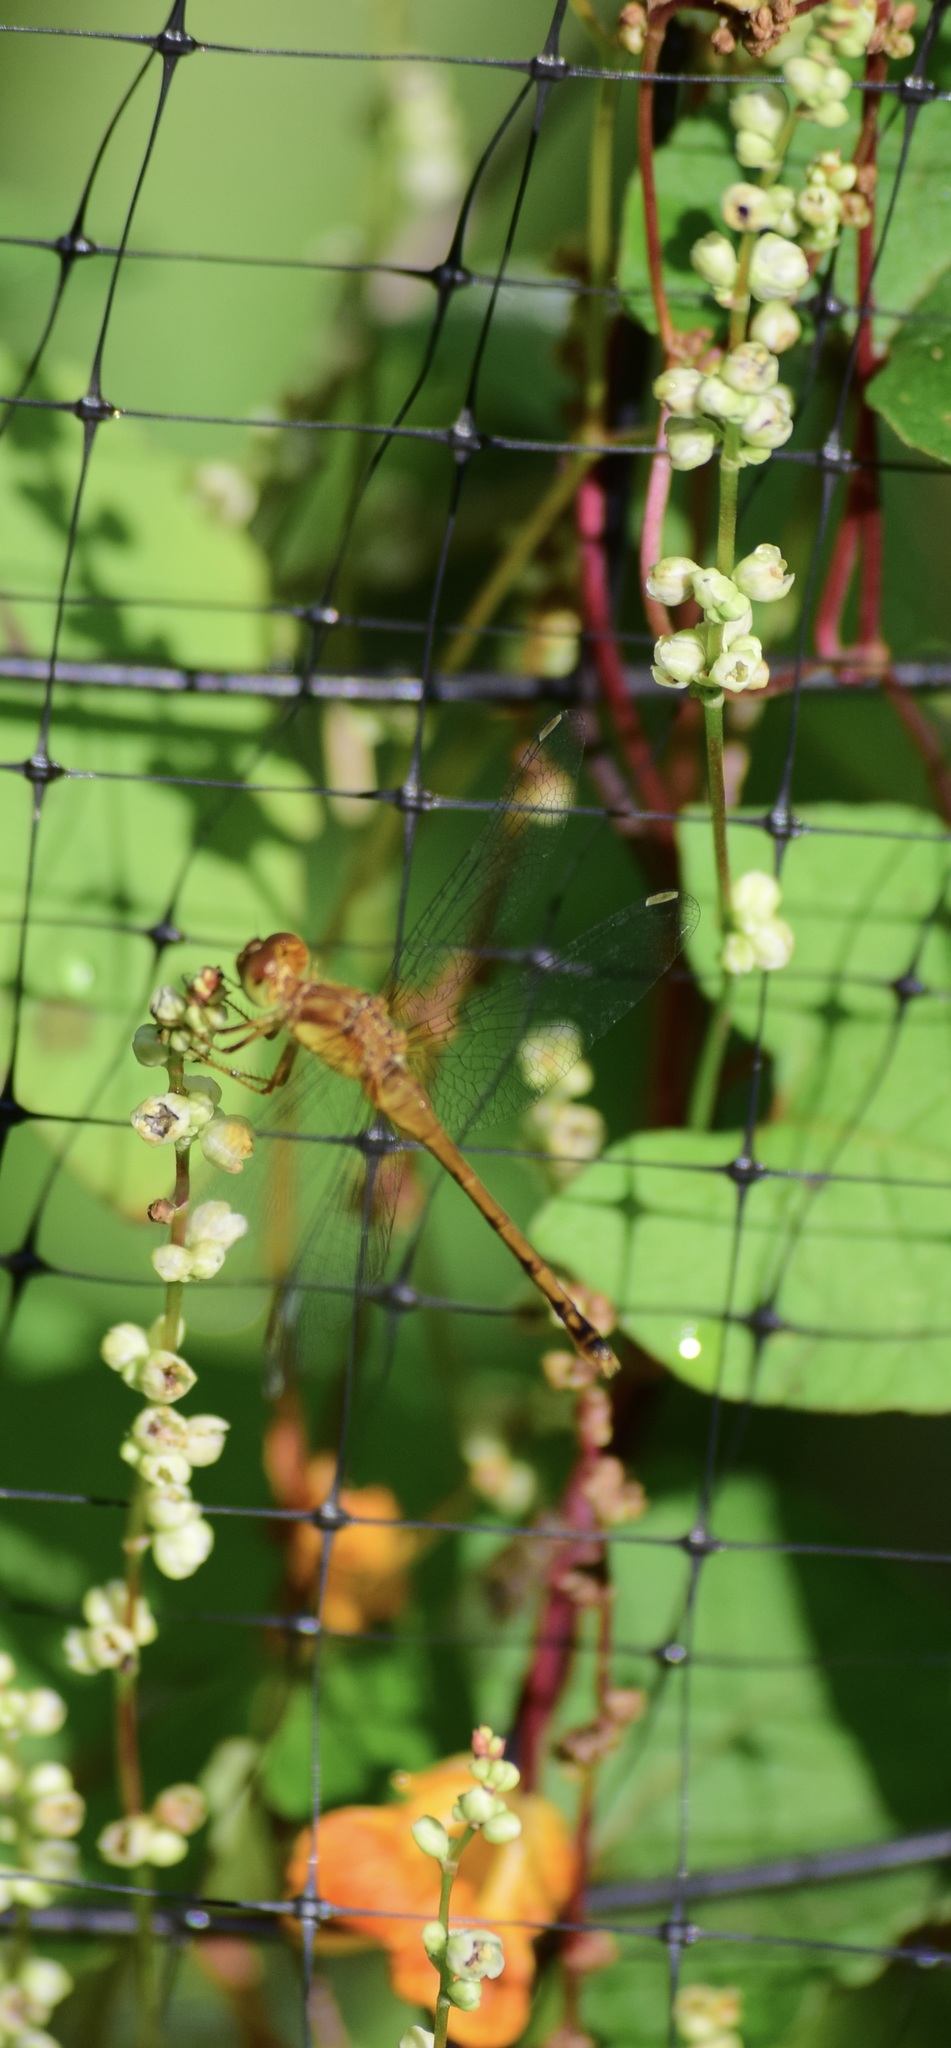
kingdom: Animalia
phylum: Arthropoda
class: Insecta
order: Odonata
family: Libellulidae
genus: Sympetrum
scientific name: Sympetrum vicinum
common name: Autumn meadowhawk
